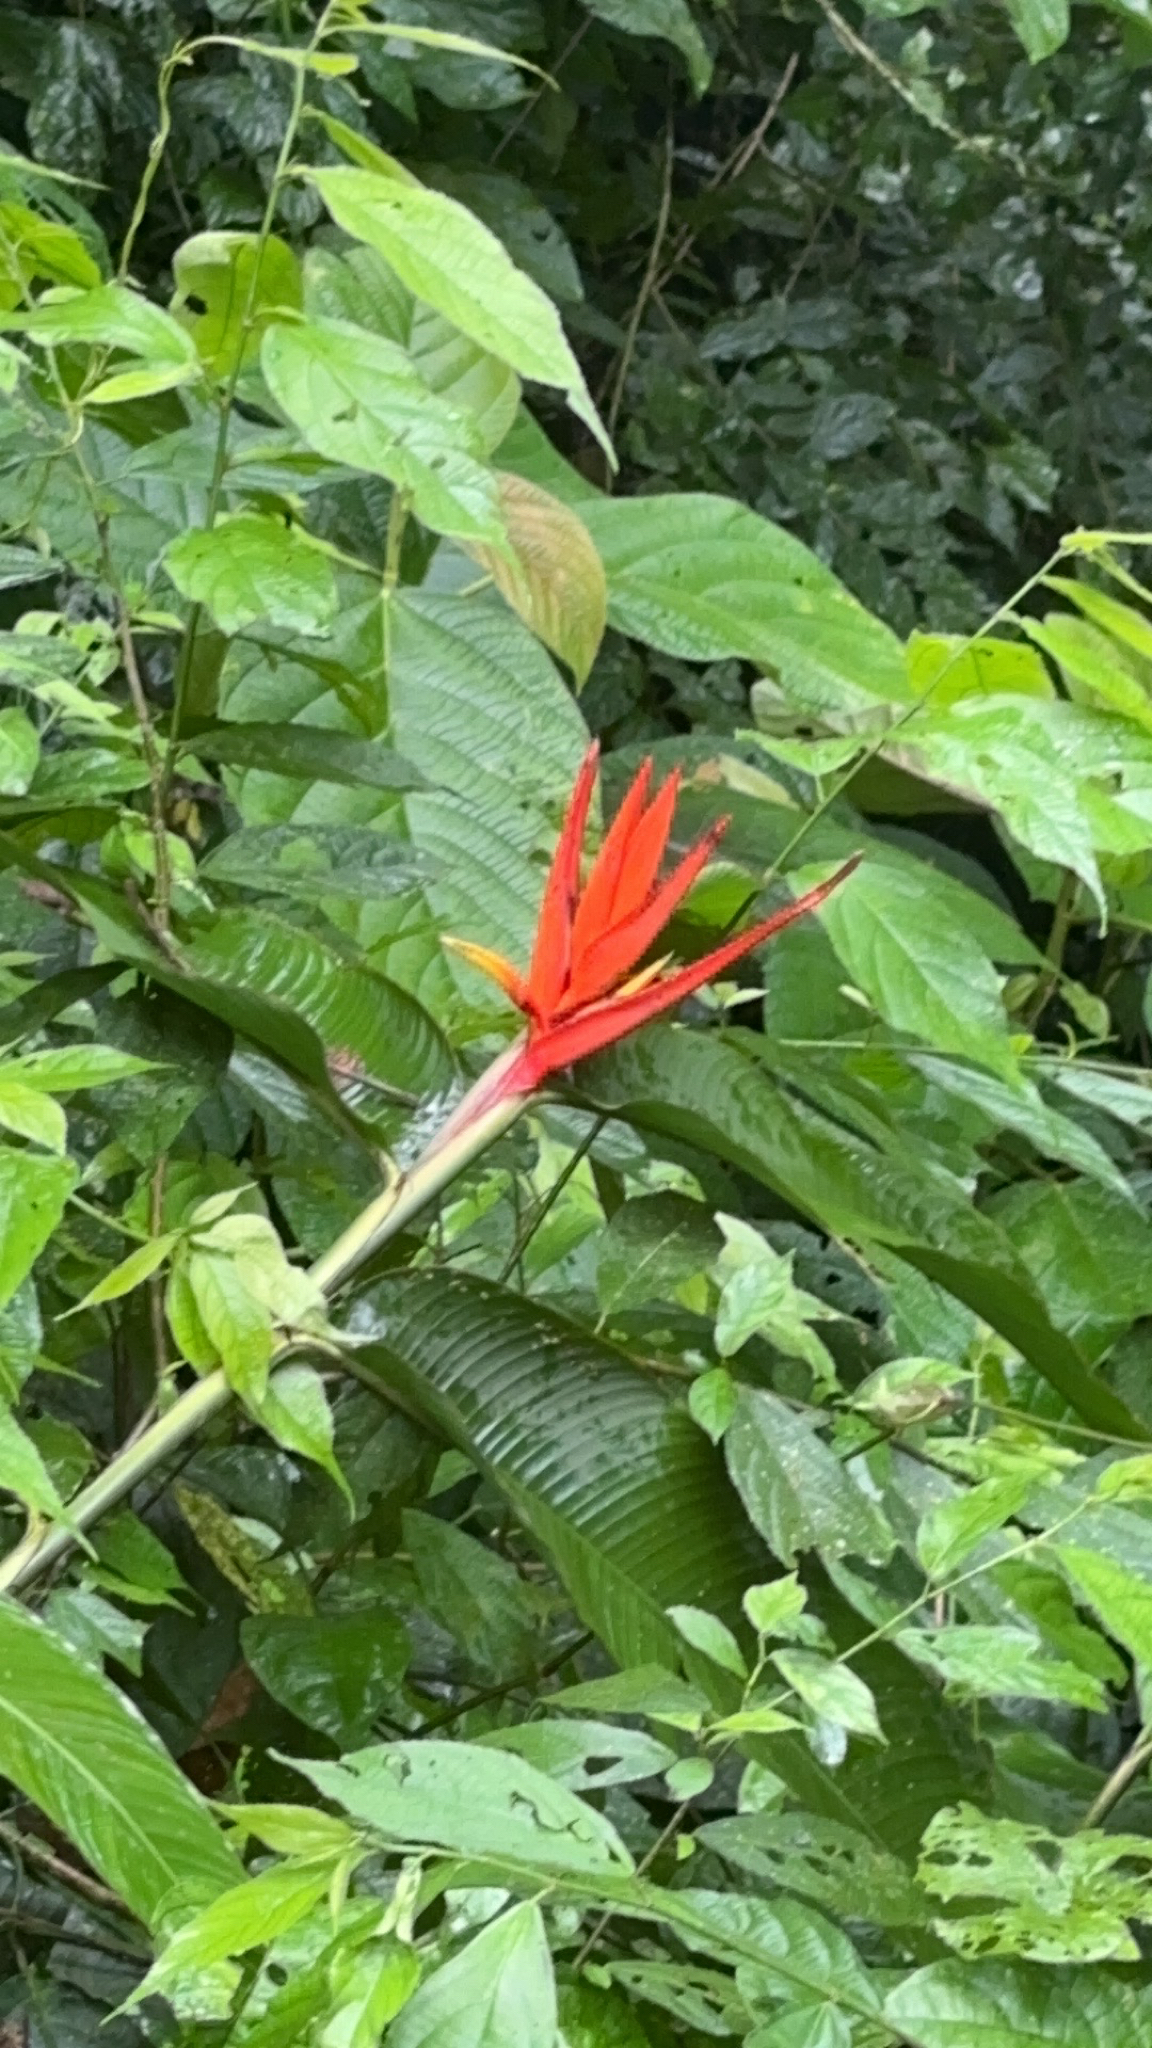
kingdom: Plantae
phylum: Tracheophyta
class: Liliopsida
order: Zingiberales
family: Heliconiaceae
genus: Heliconia
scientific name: Heliconia mathiasiae
